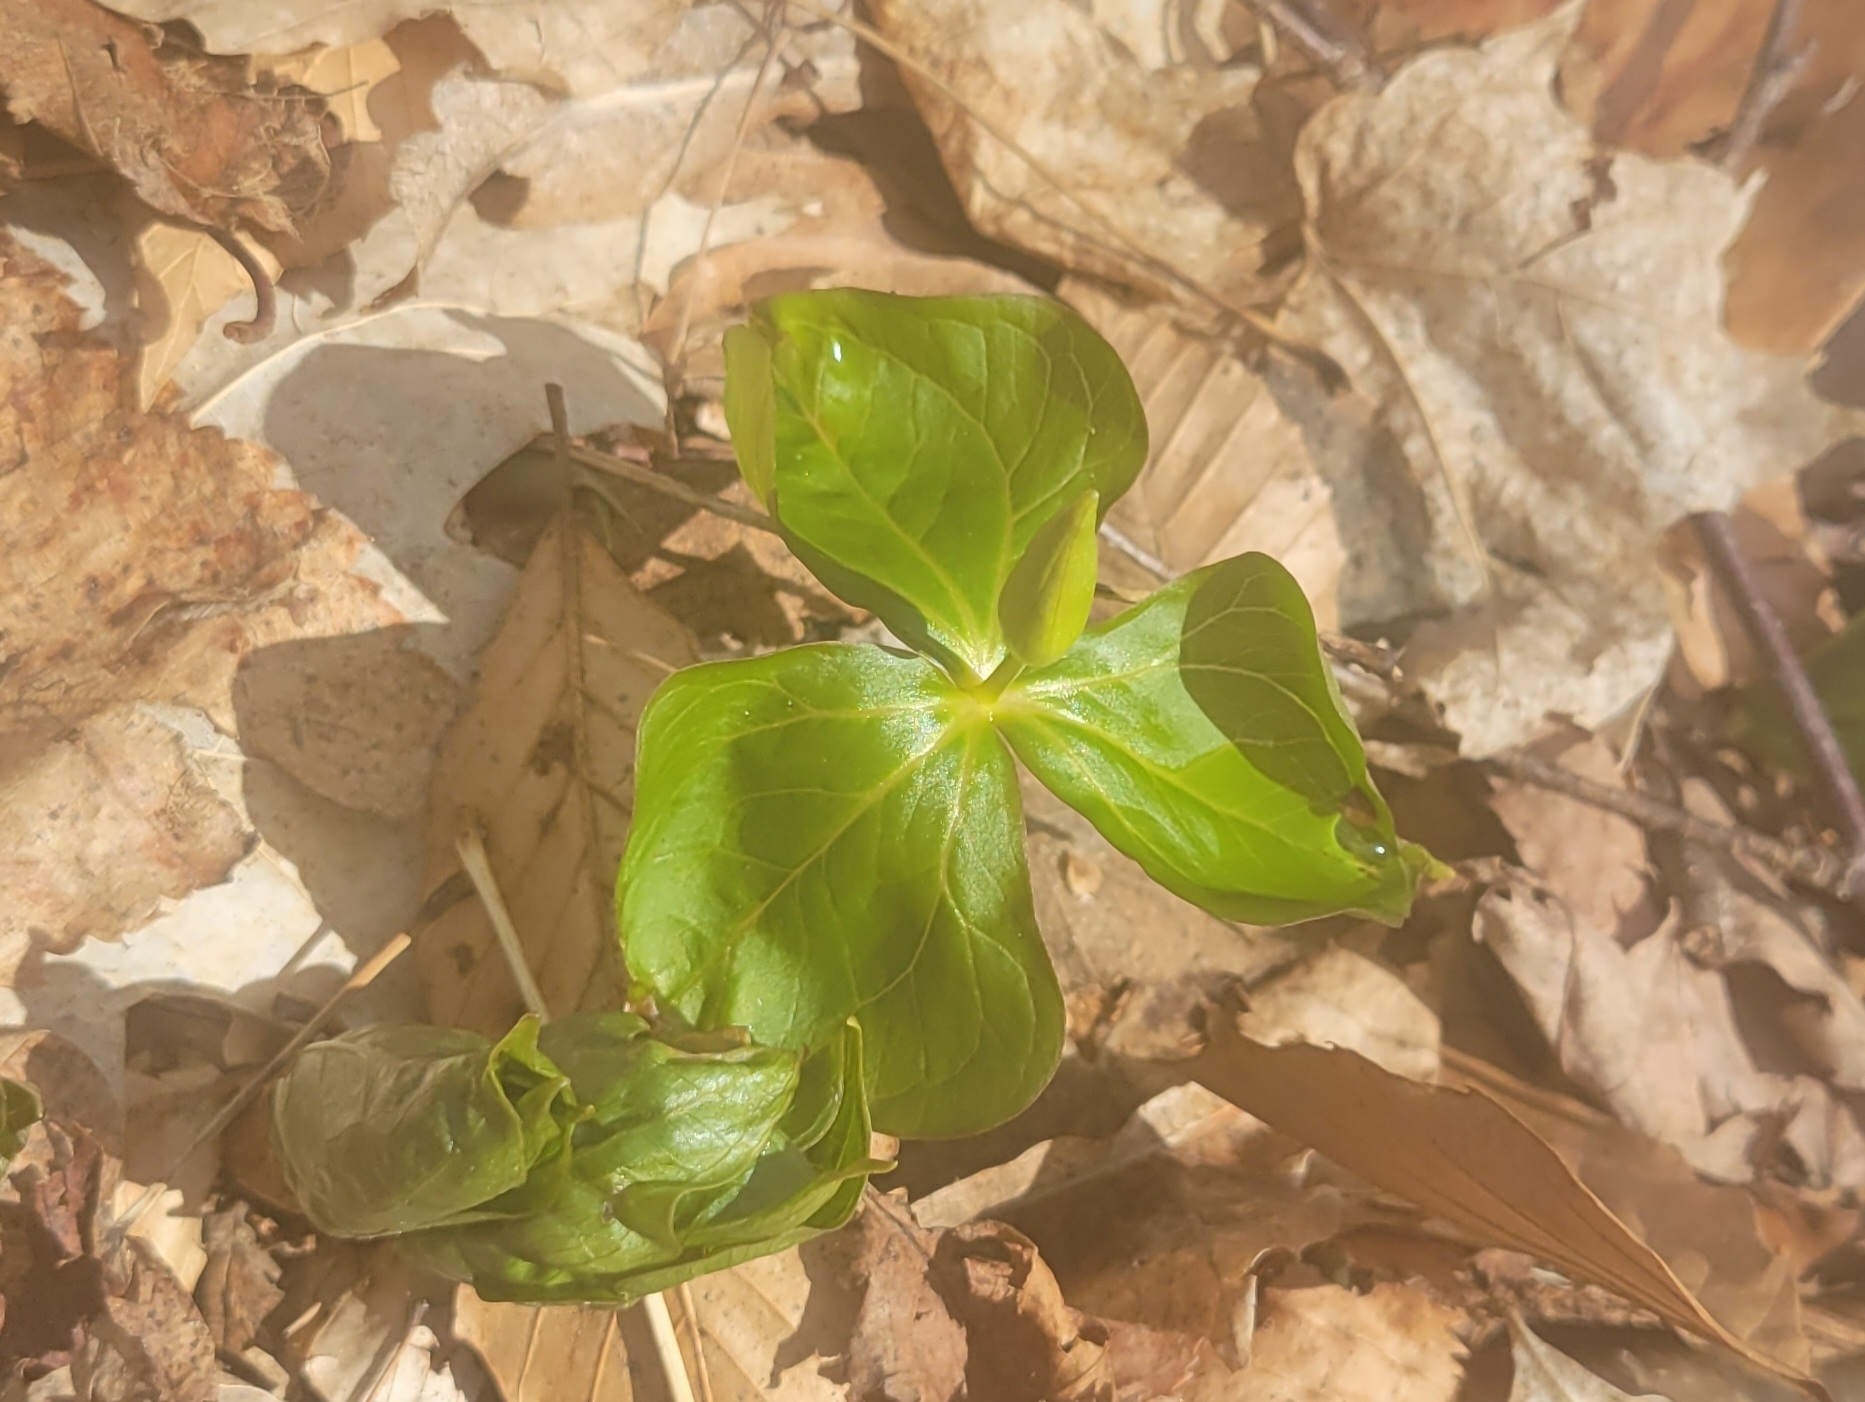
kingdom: Plantae
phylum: Tracheophyta
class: Liliopsida
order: Liliales
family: Melanthiaceae
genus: Trillium
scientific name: Trillium erectum
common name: Purple trillium
